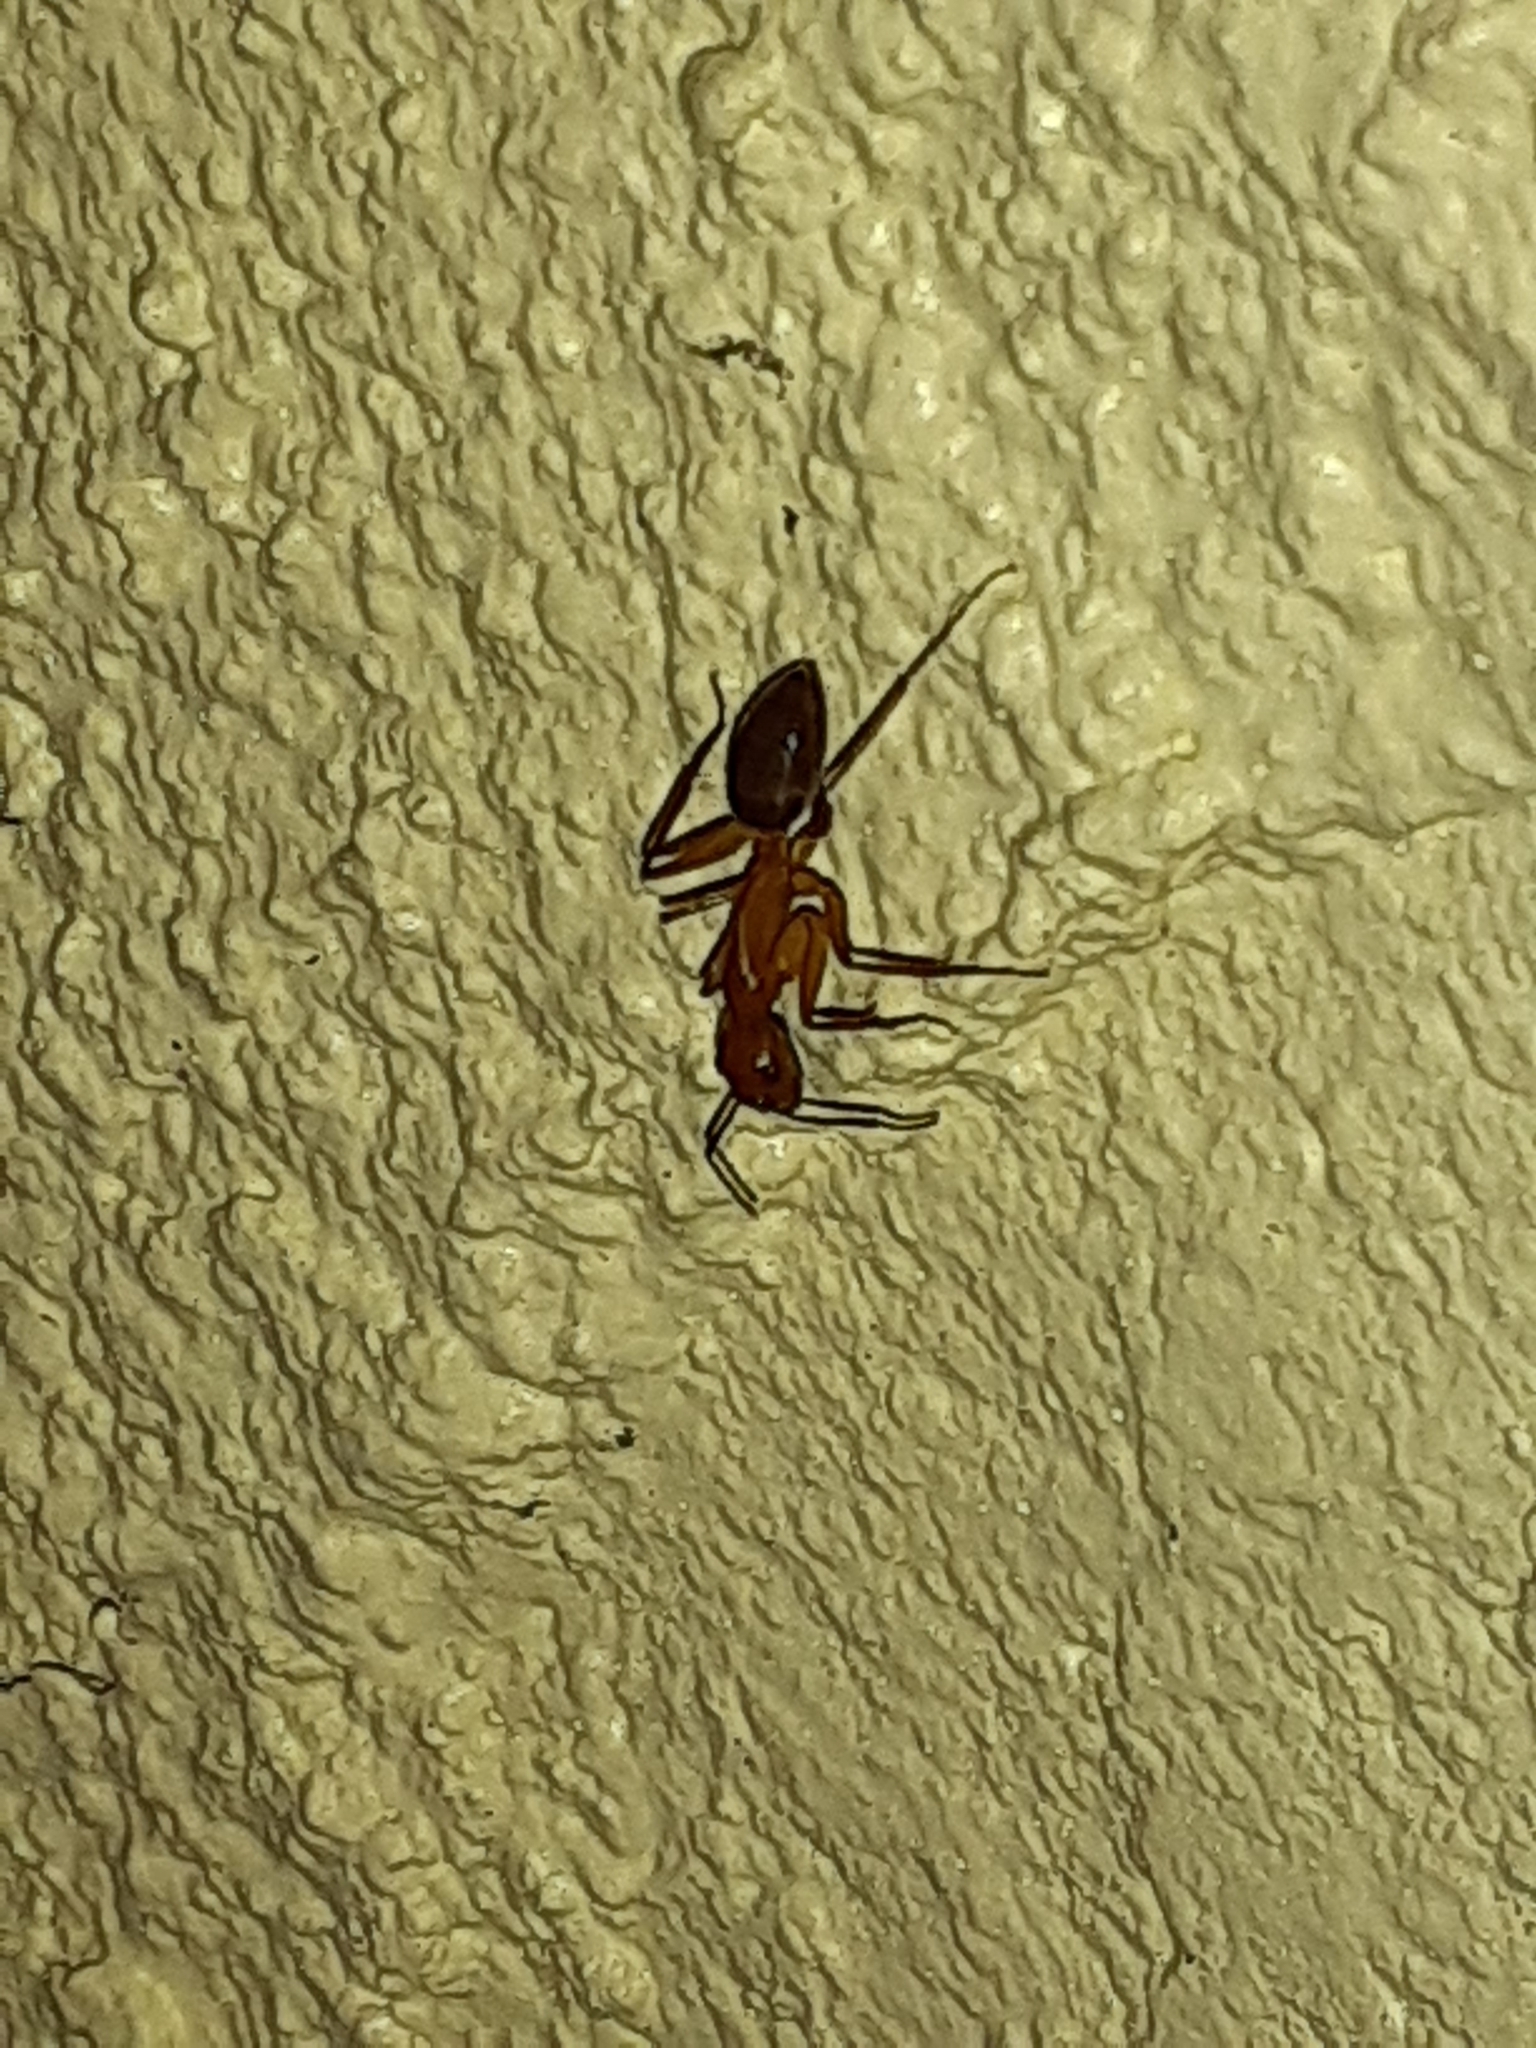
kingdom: Animalia
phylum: Arthropoda
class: Insecta
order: Hymenoptera
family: Formicidae
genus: Camponotus
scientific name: Camponotus inaequalis
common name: Ant
